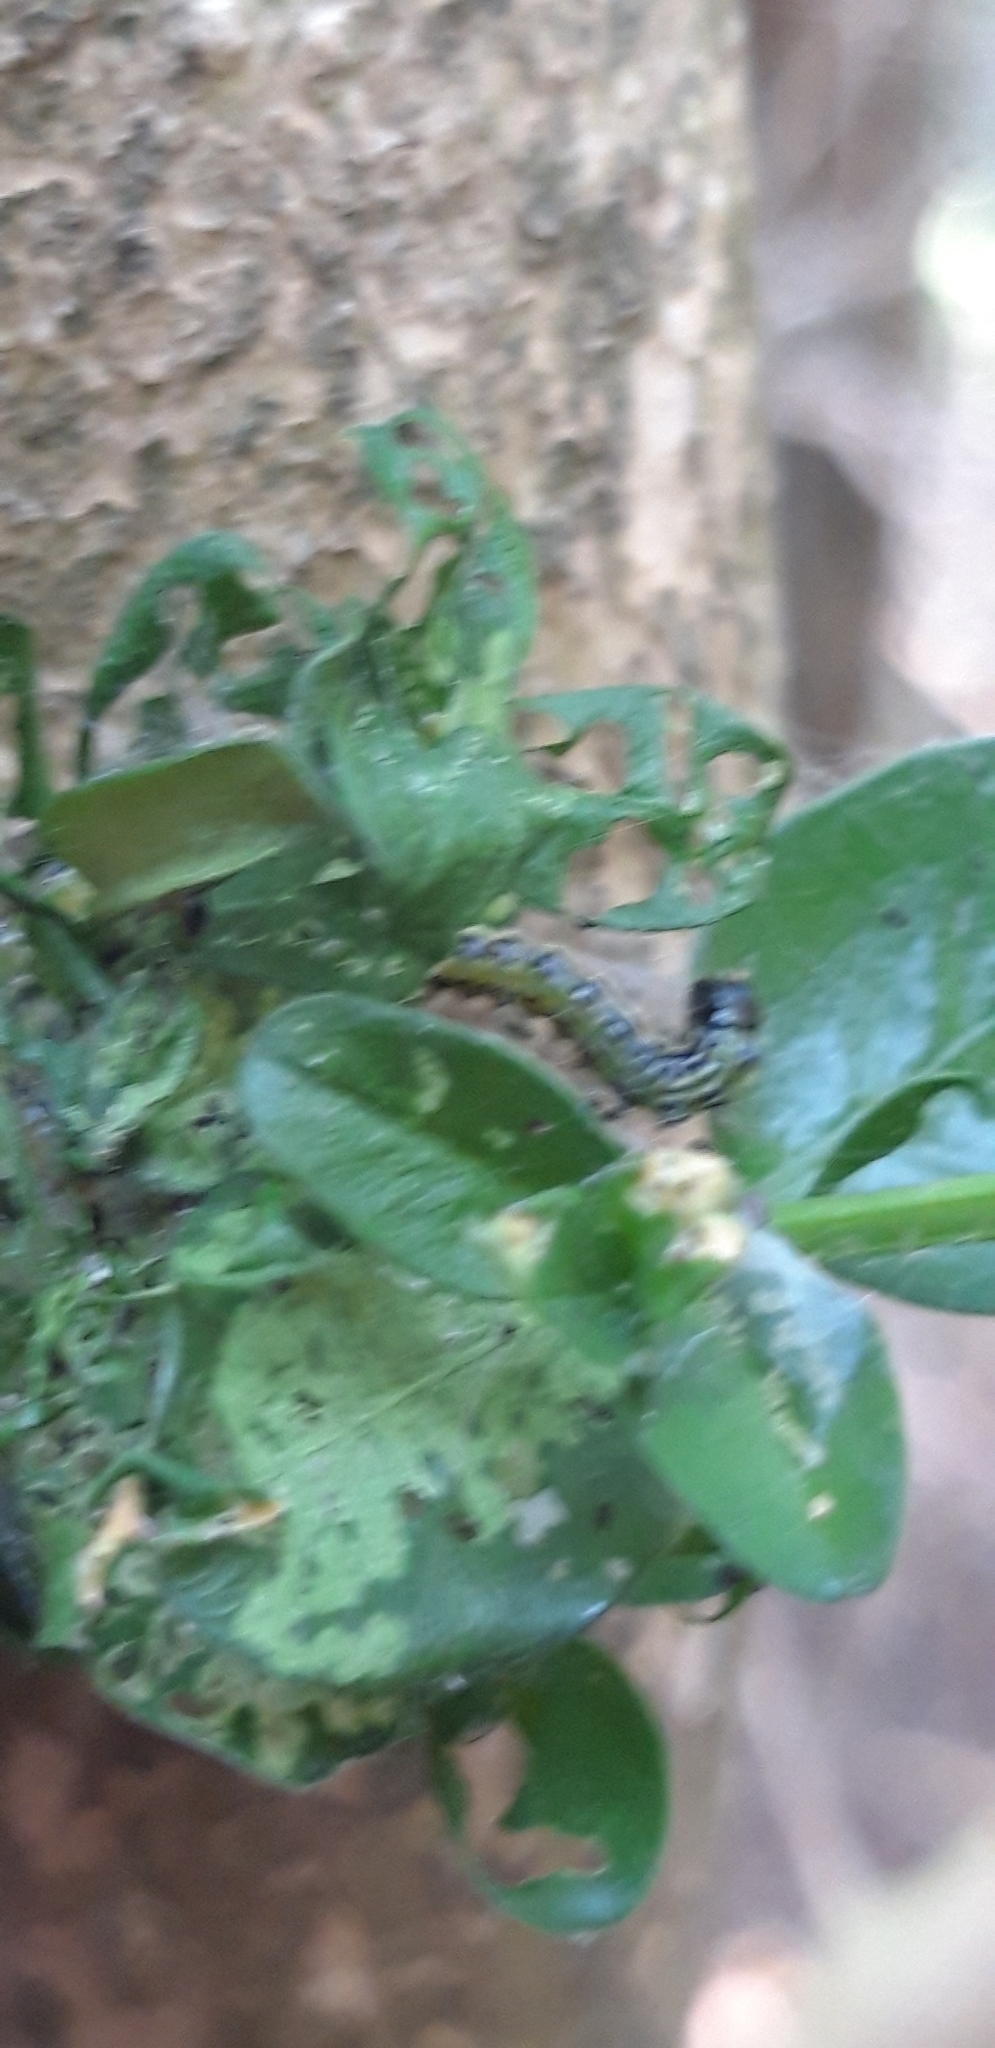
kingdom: Animalia
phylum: Arthropoda
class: Insecta
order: Lepidoptera
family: Crambidae
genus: Cydalima
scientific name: Cydalima perspectalis
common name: Box tree moth
